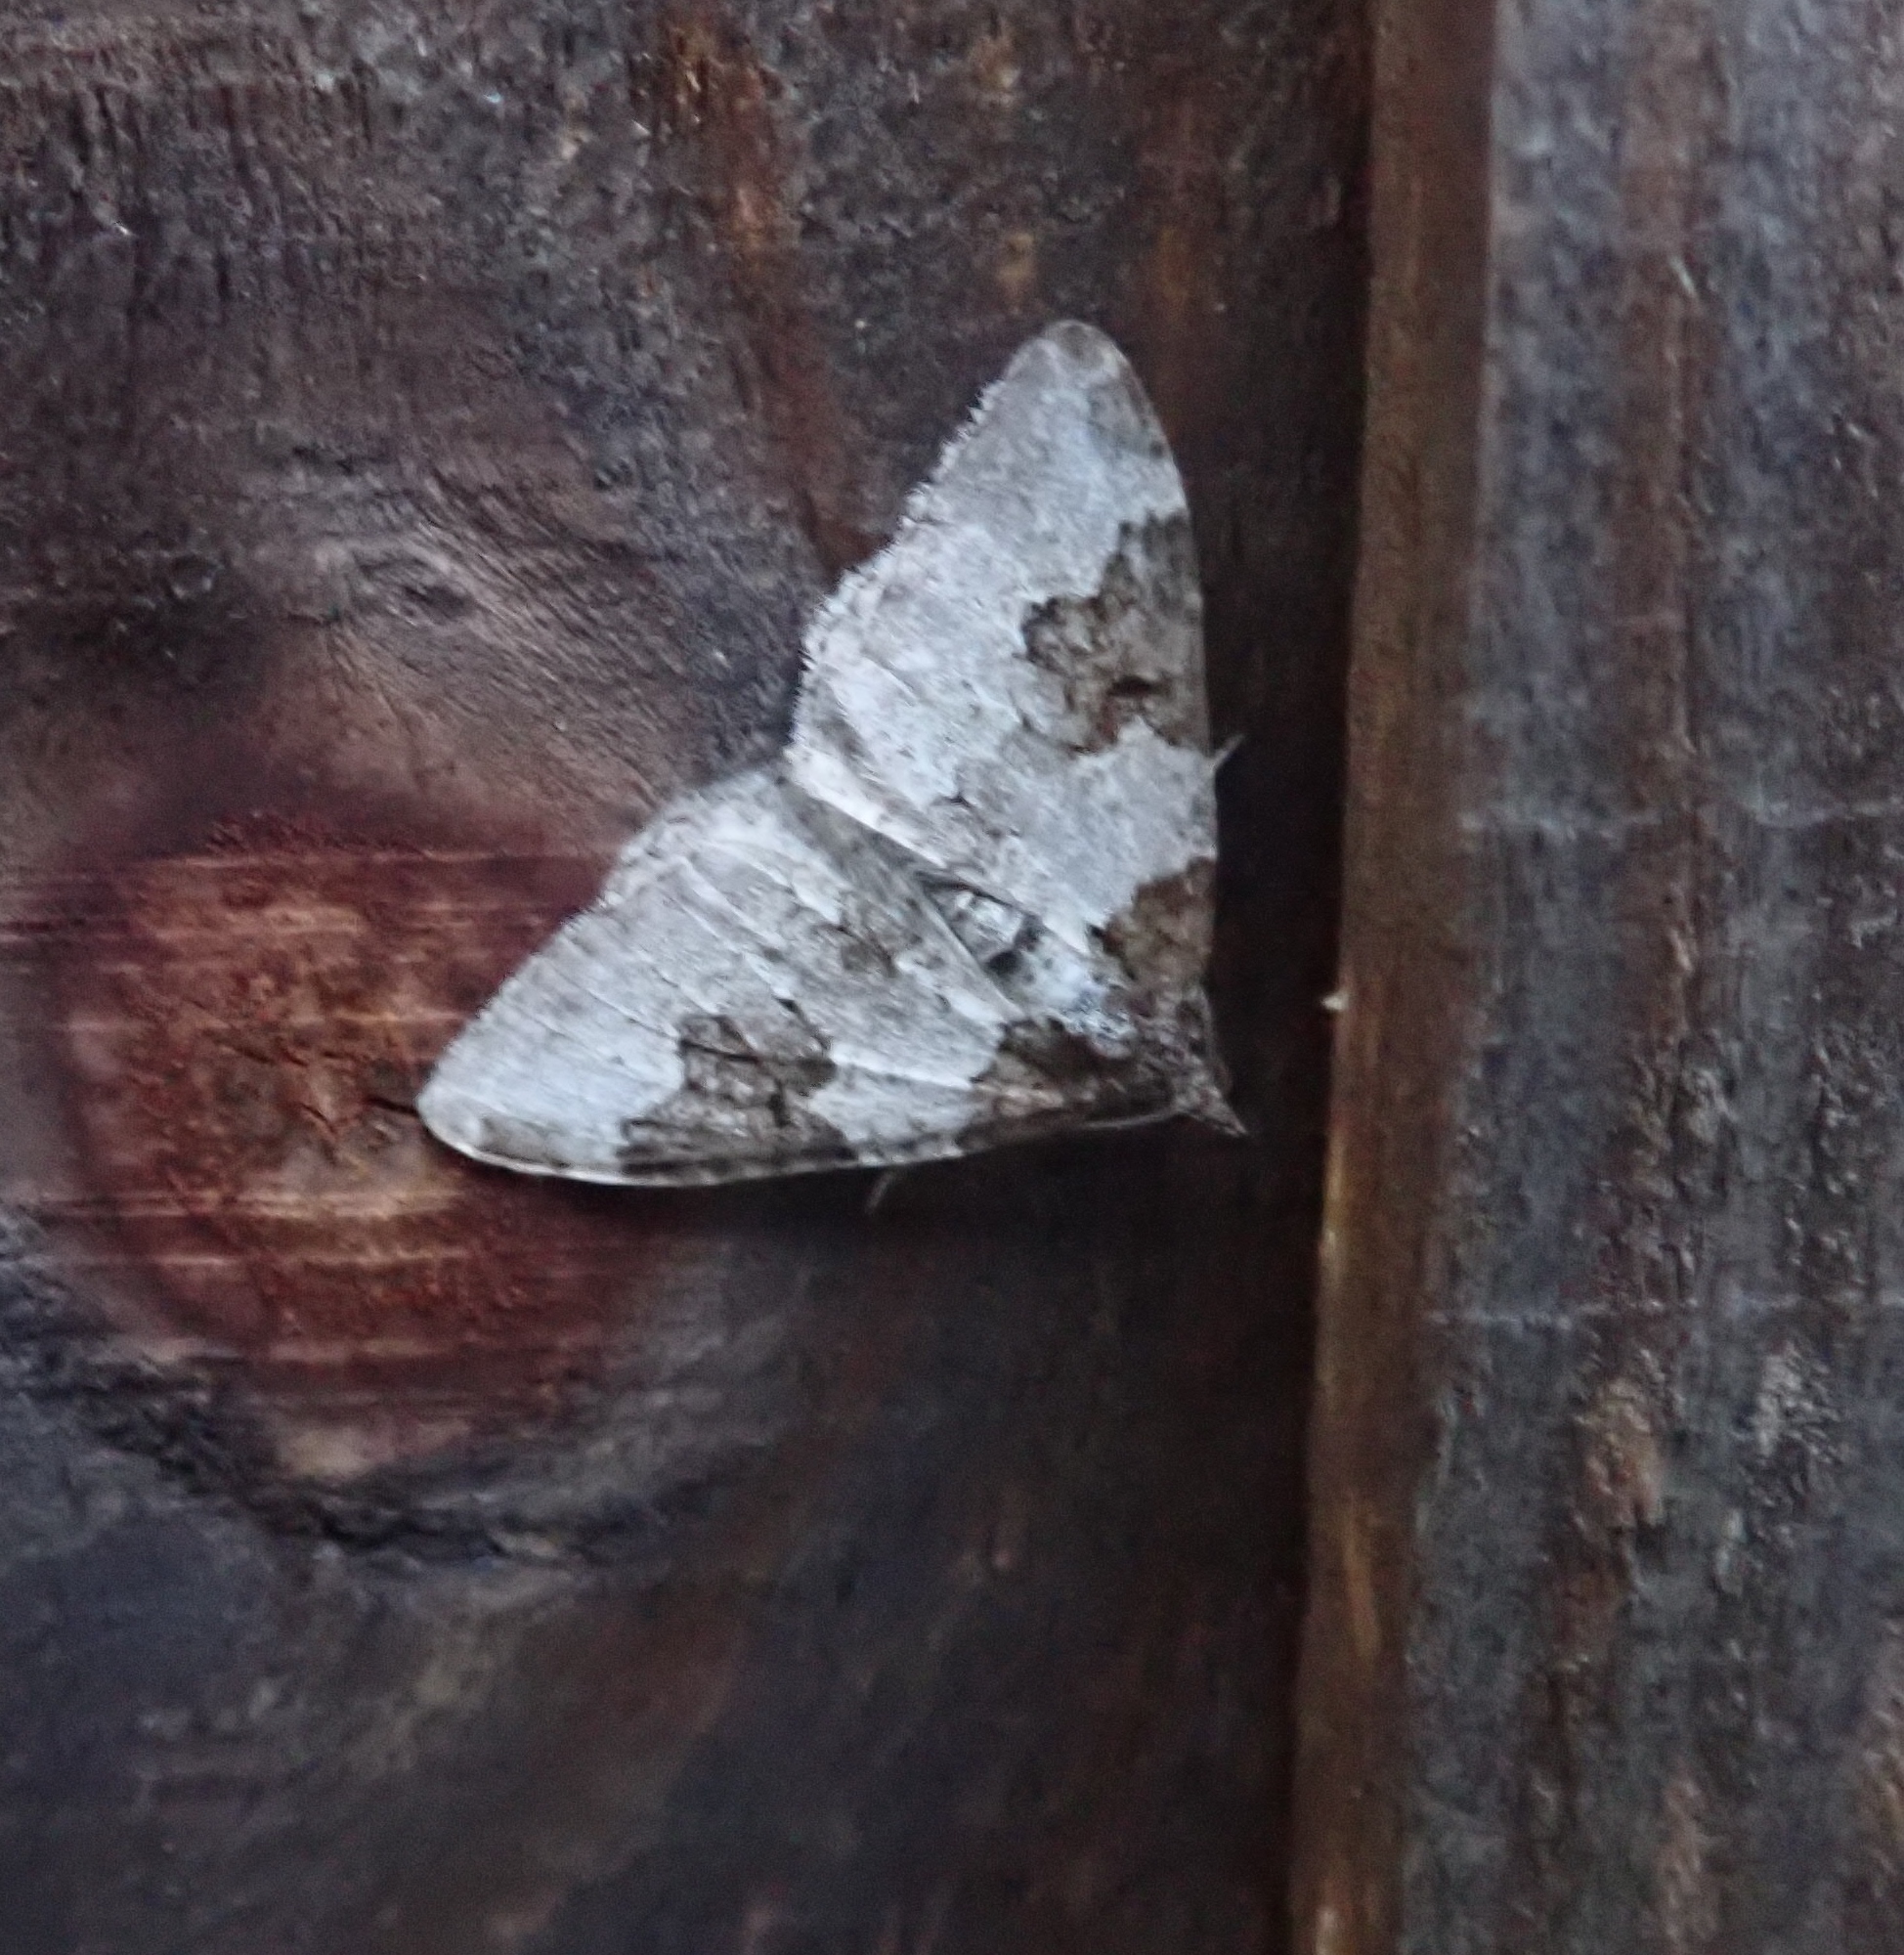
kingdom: Animalia
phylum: Arthropoda
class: Insecta
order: Lepidoptera
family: Geometridae
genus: Xanthorhoe
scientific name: Xanthorhoe fluctuata
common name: Garden carpet
